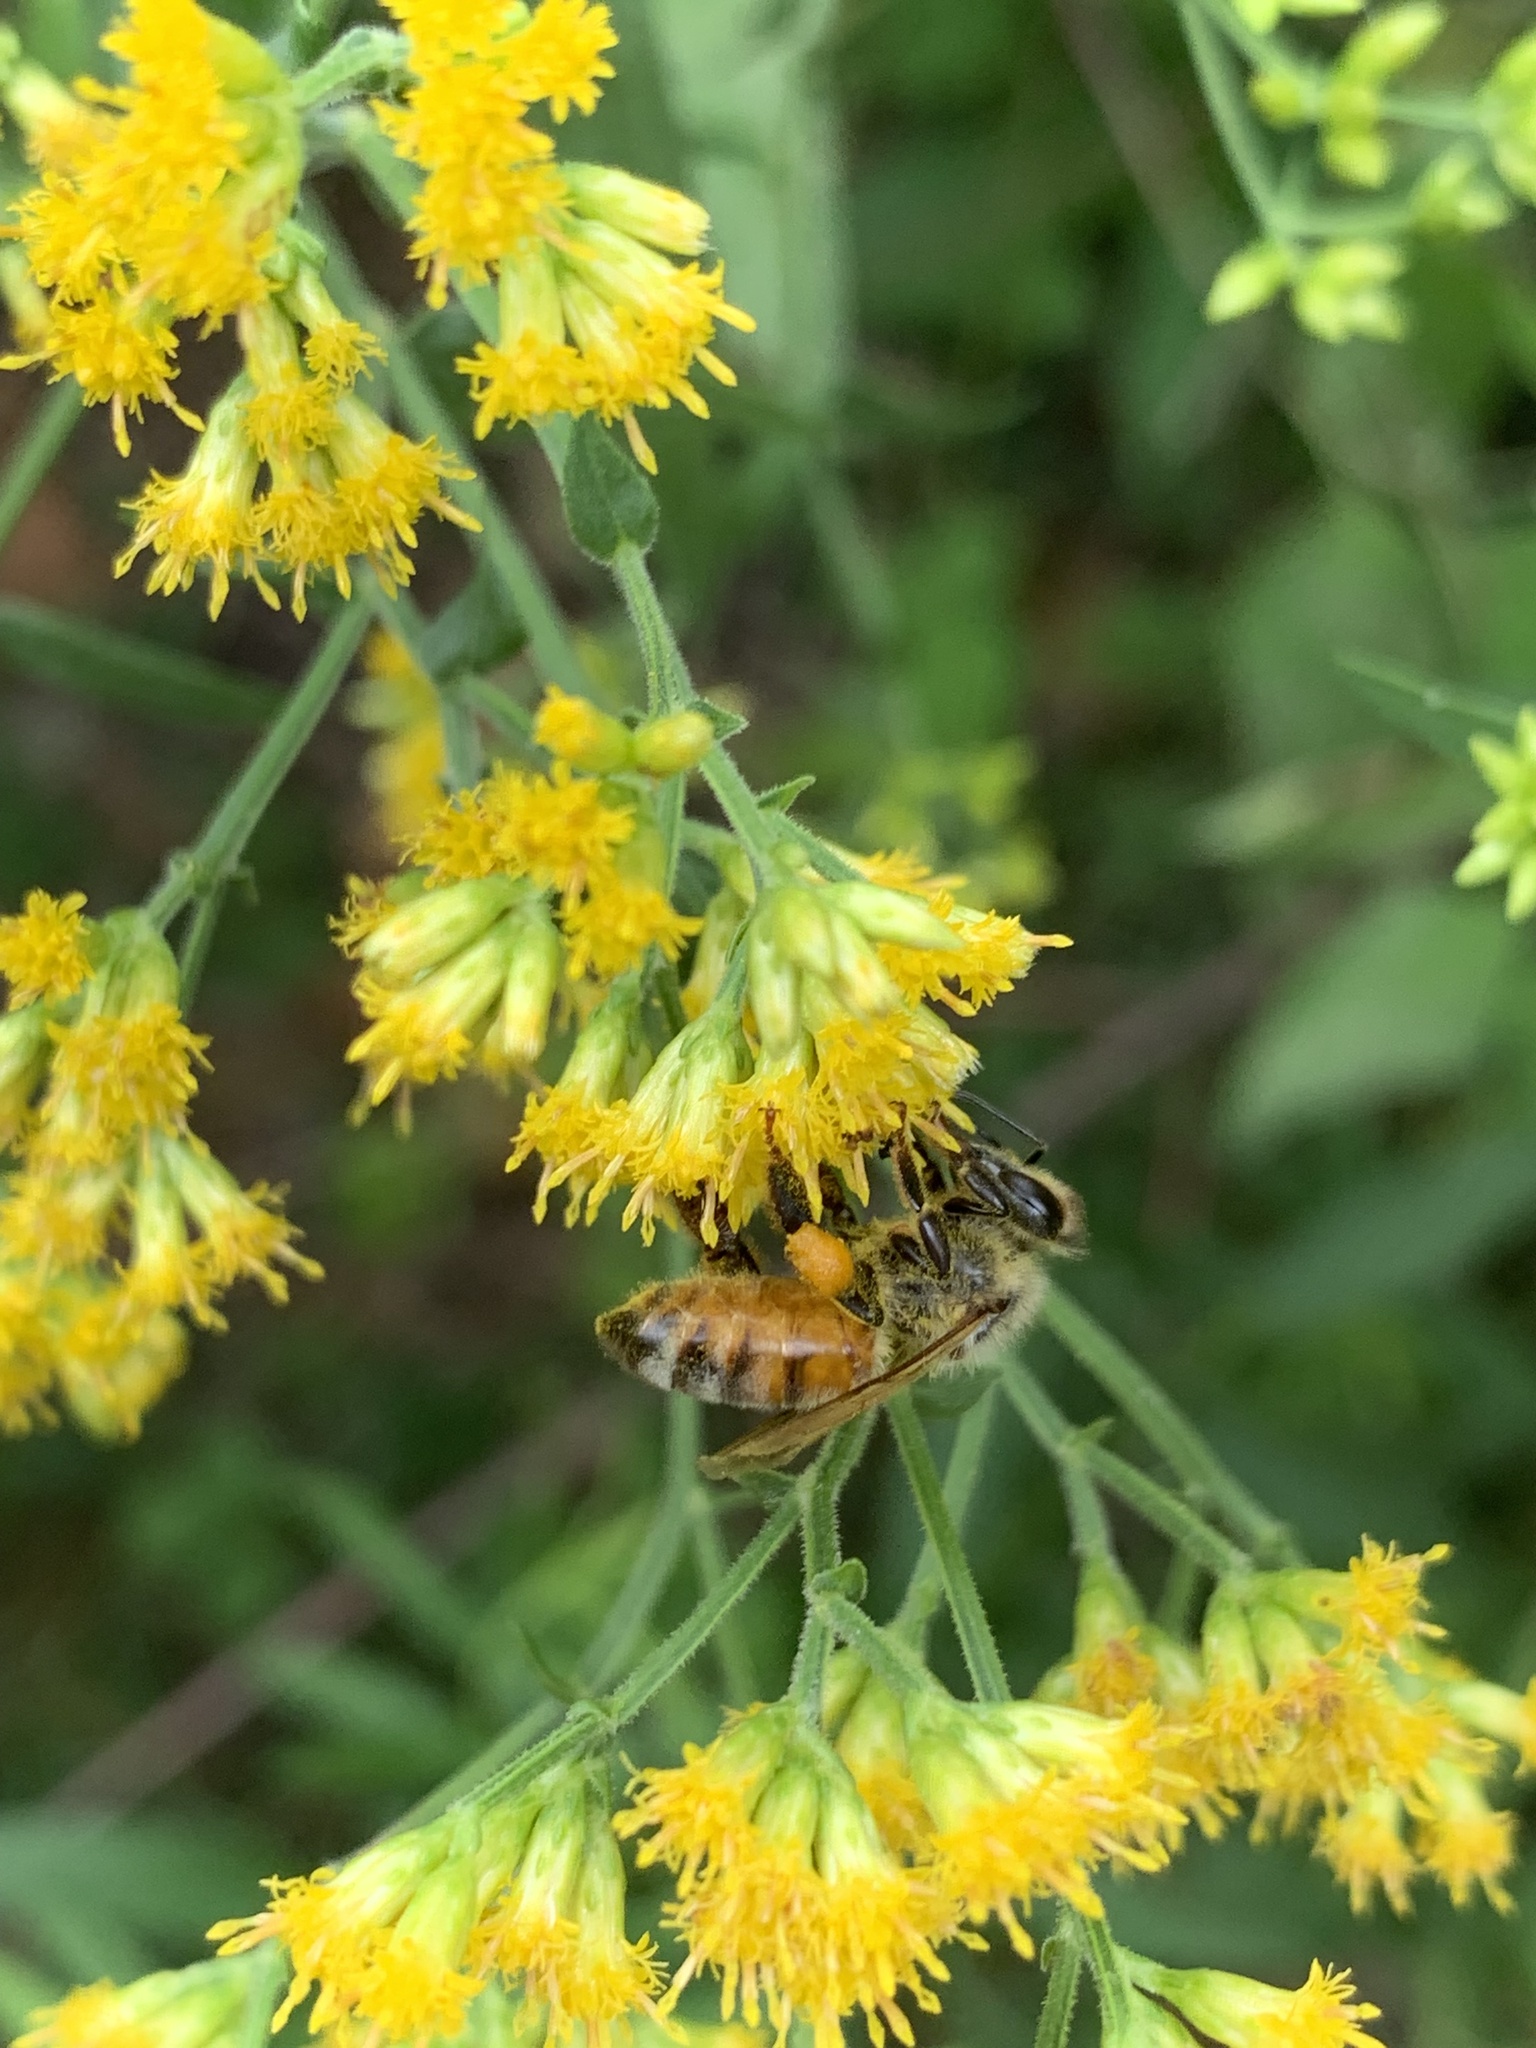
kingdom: Animalia
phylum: Arthropoda
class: Insecta
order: Hymenoptera
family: Apidae
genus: Apis
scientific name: Apis mellifera
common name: Honey bee
